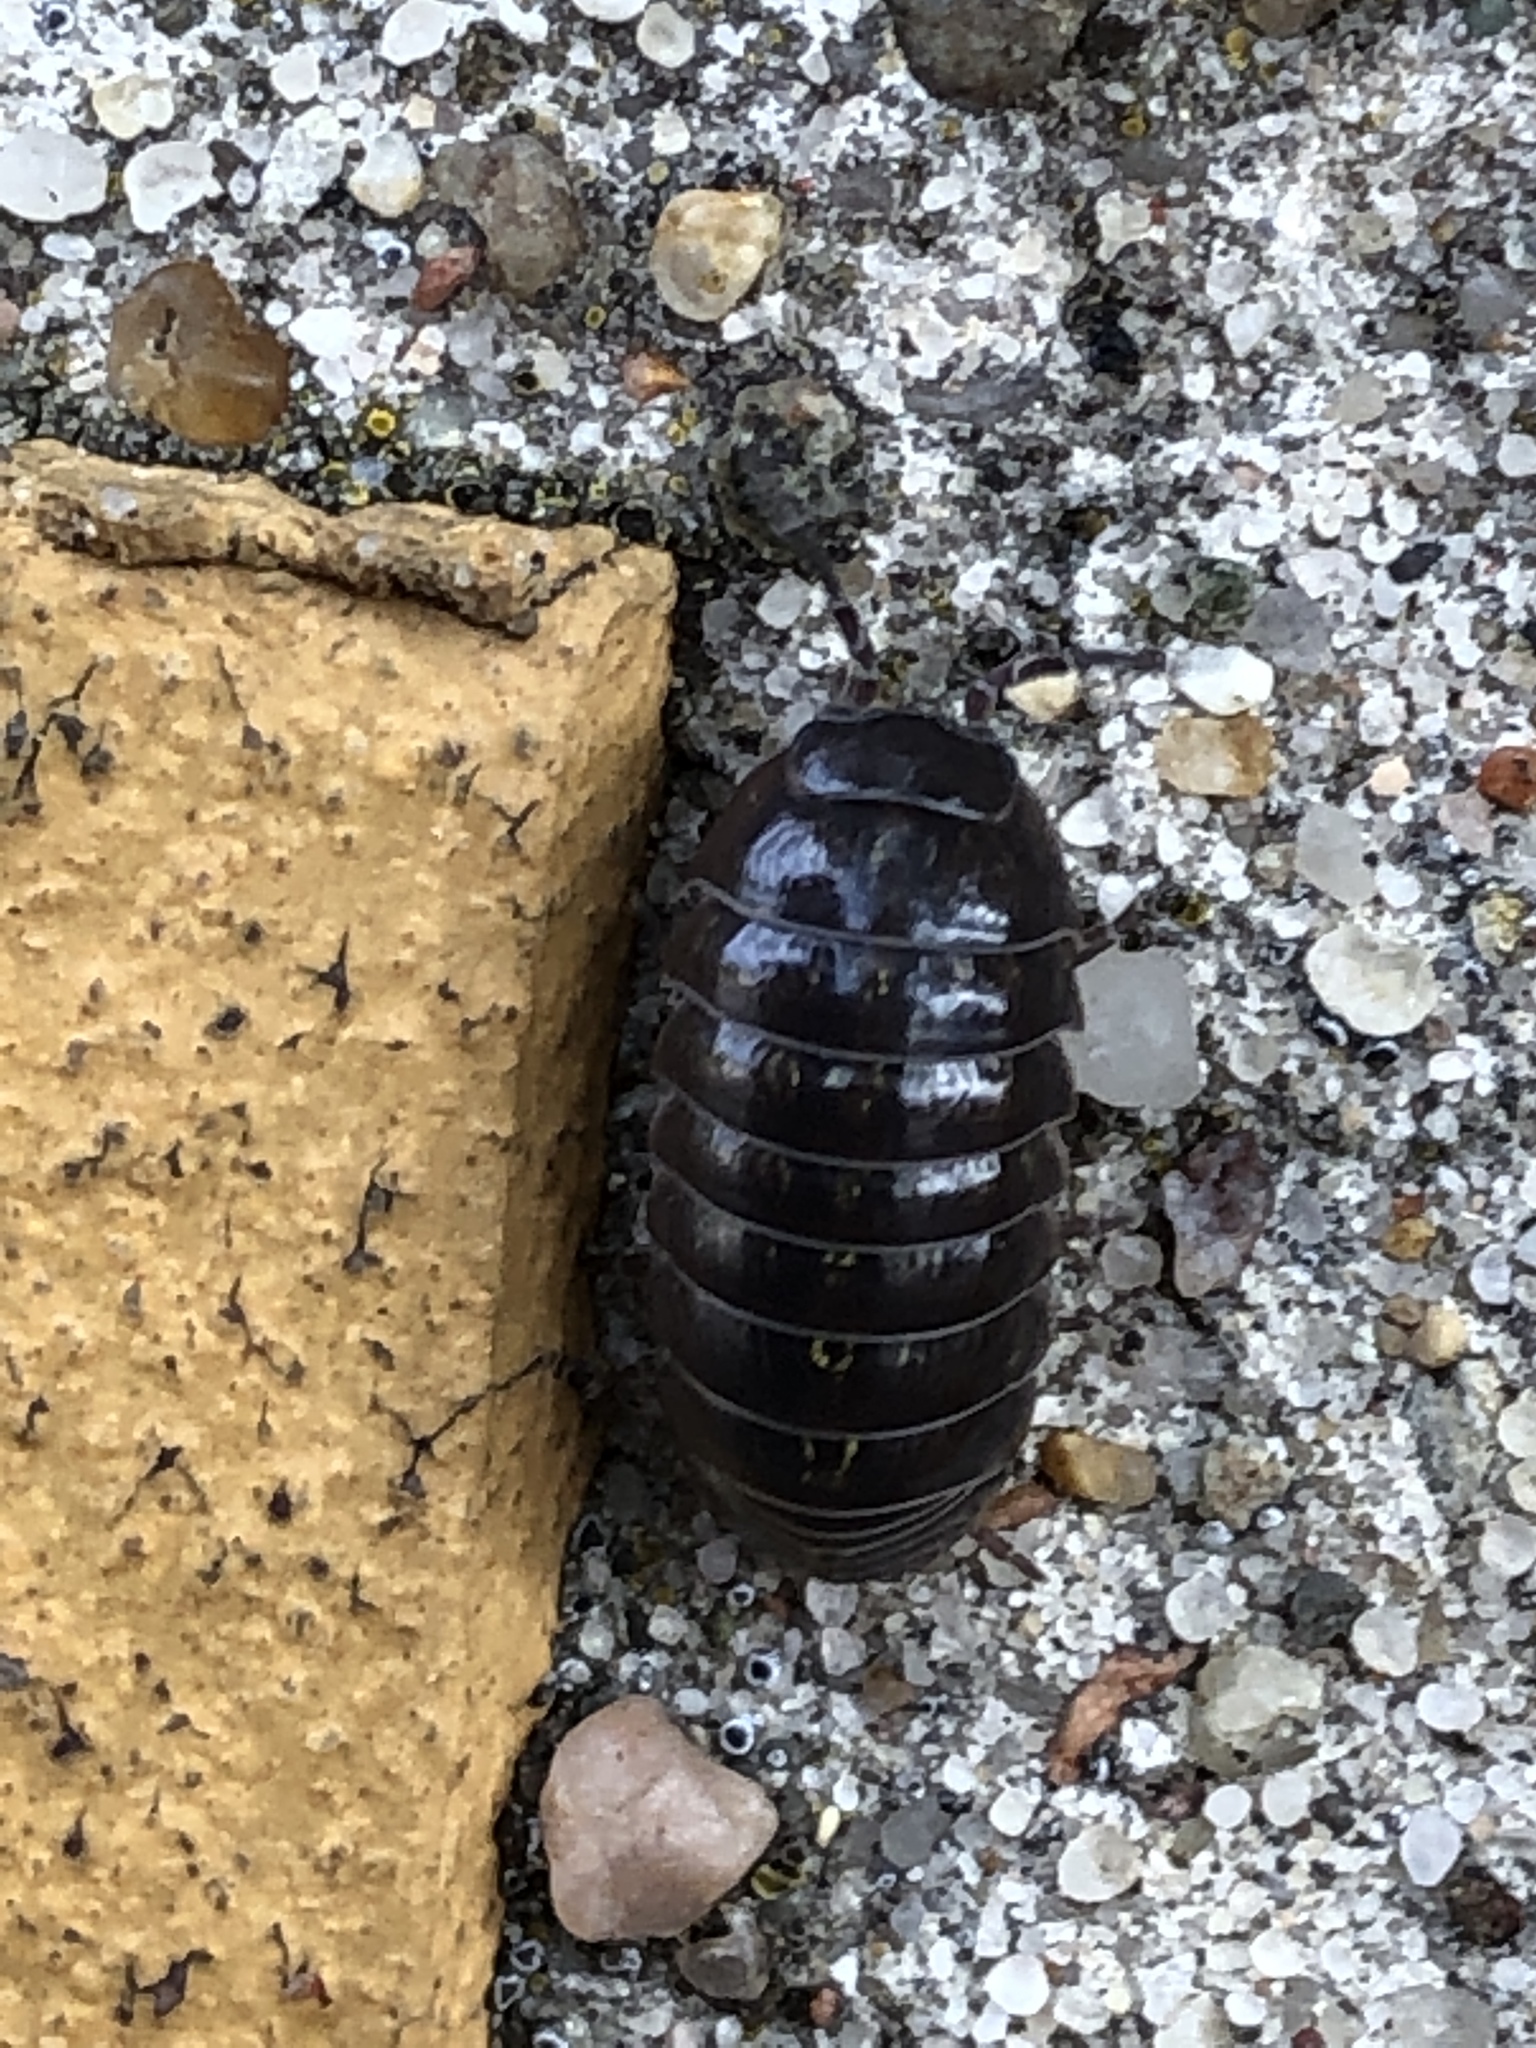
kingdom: Animalia
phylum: Arthropoda
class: Malacostraca
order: Isopoda
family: Armadillidiidae
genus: Armadillidium
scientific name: Armadillidium vulgare
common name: Common pill woodlouse
